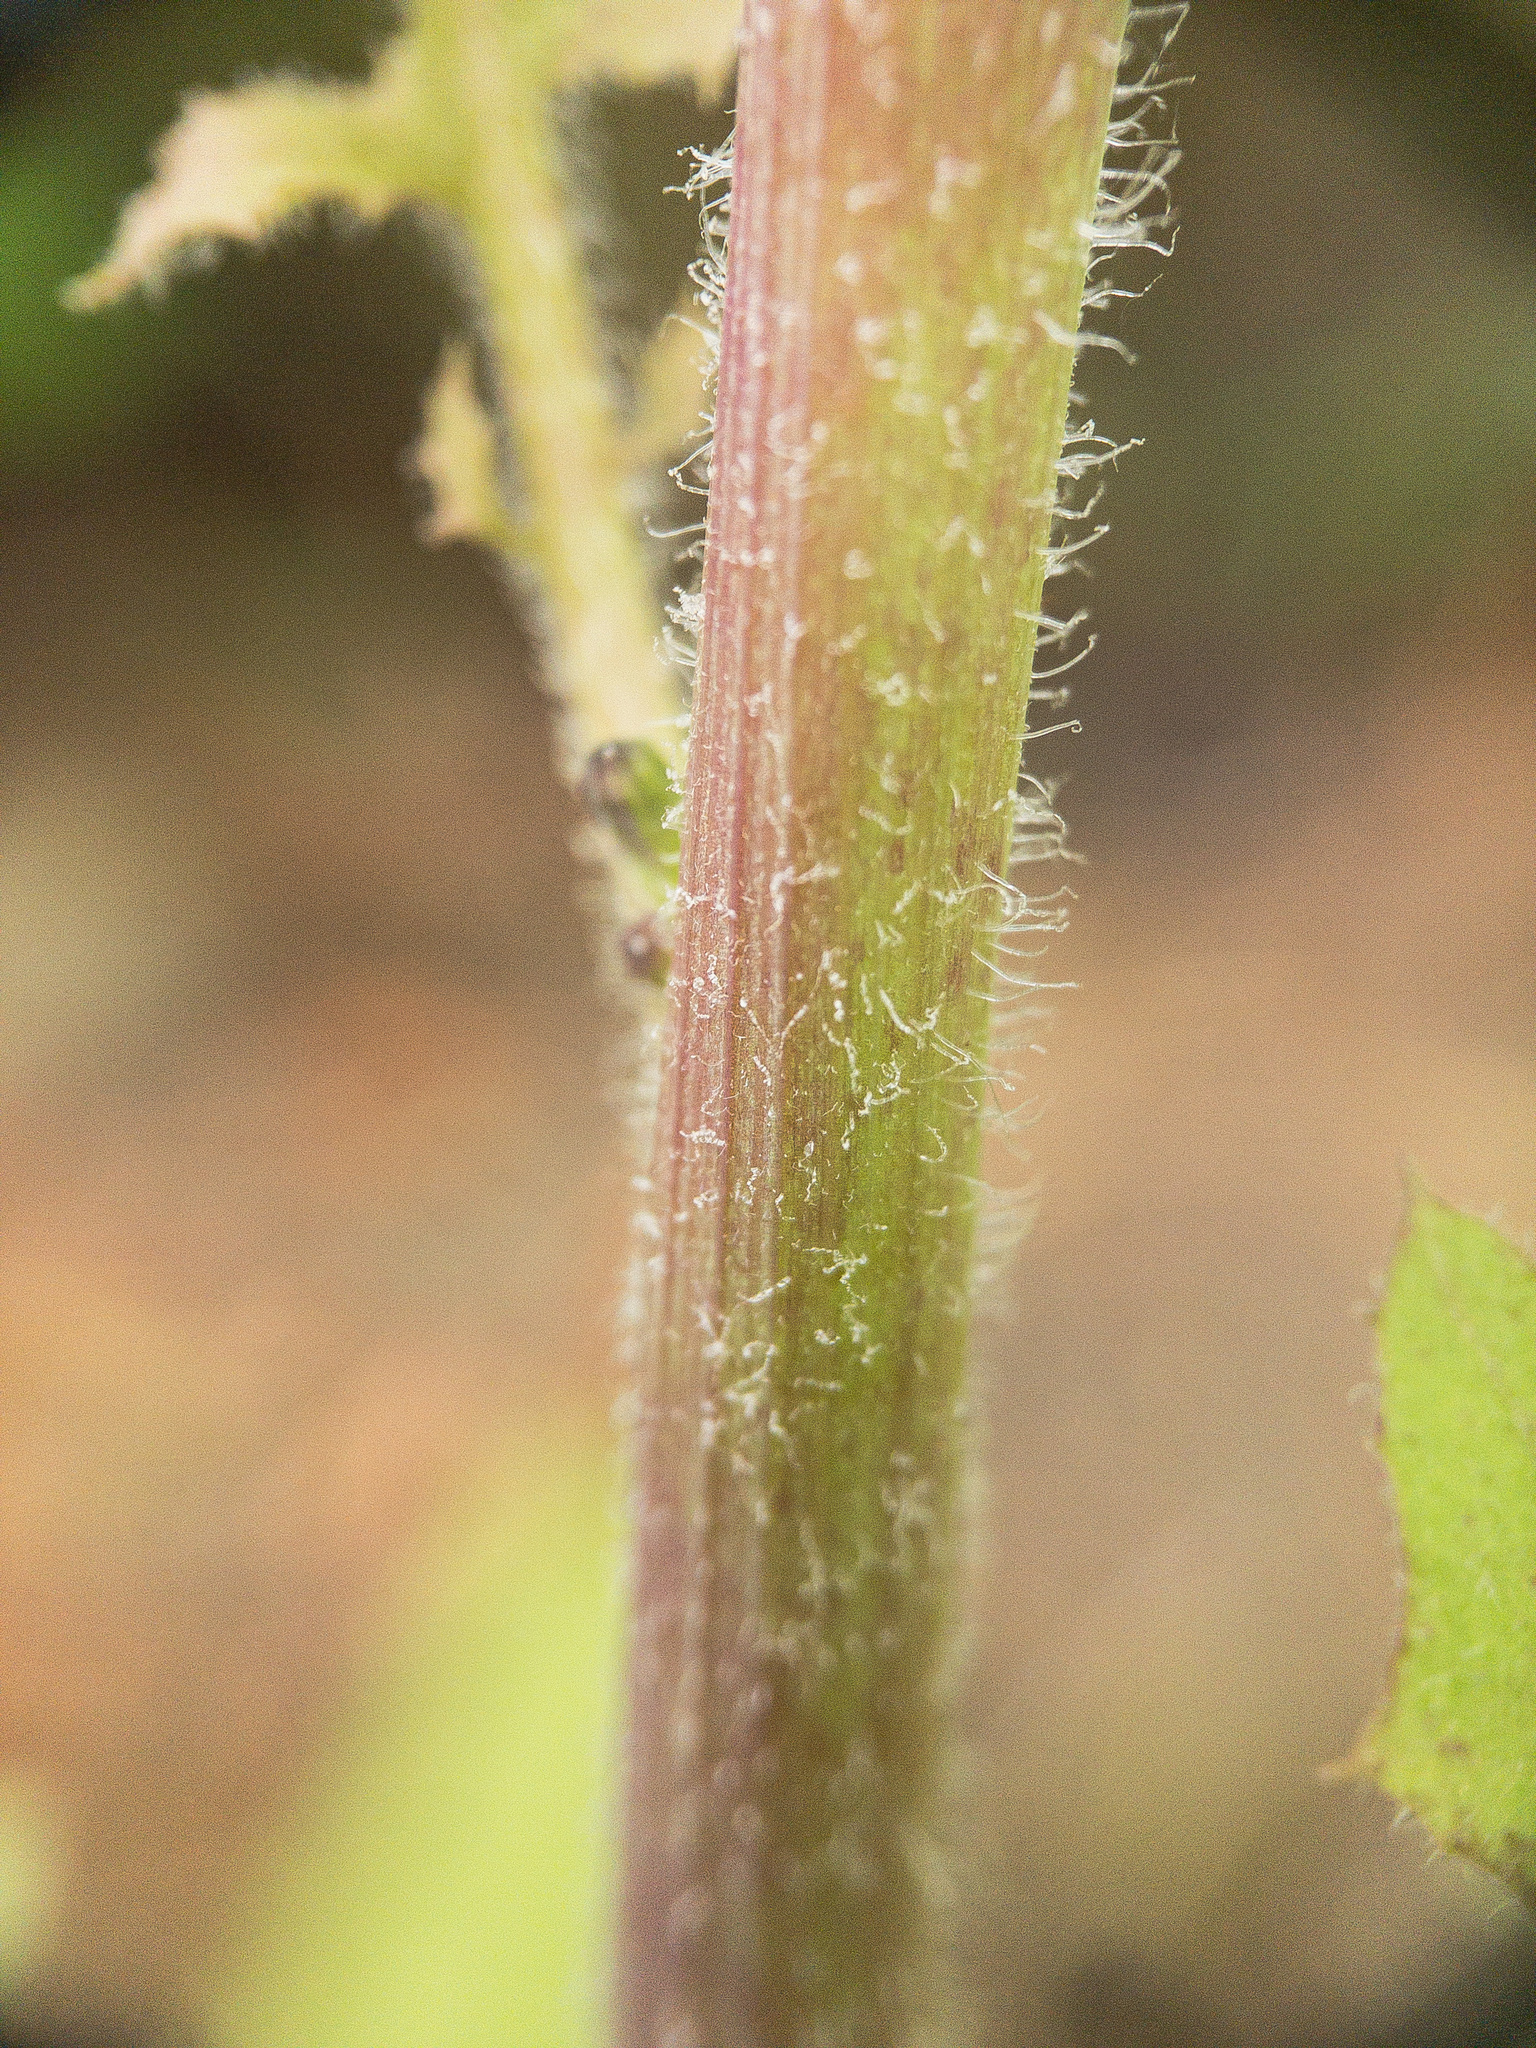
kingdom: Plantae
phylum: Tracheophyta
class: Magnoliopsida
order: Asterales
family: Asteraceae
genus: Youngia
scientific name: Youngia japonica
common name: Oriental false hawksbeard
